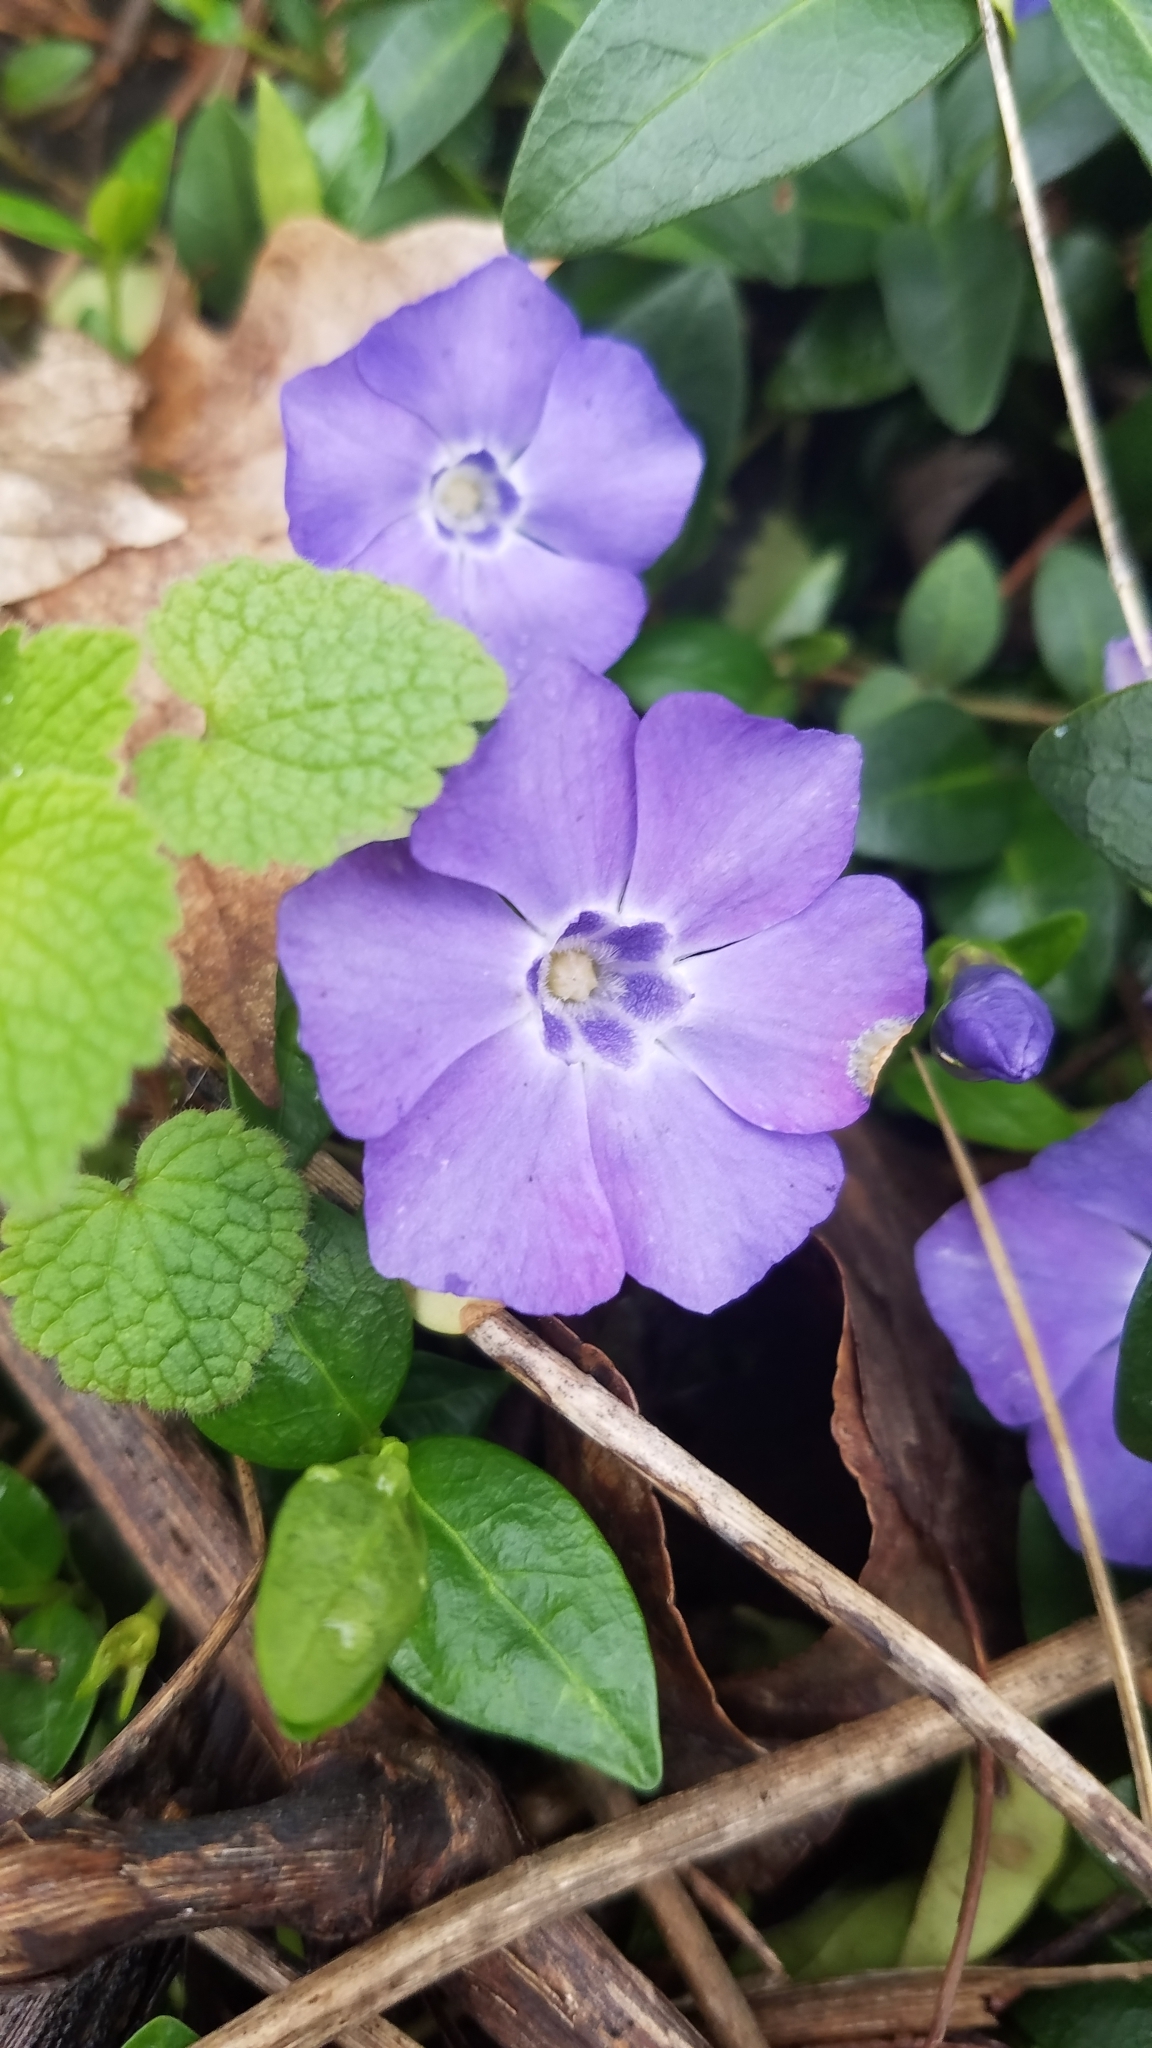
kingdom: Plantae
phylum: Tracheophyta
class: Magnoliopsida
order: Gentianales
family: Apocynaceae
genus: Vinca
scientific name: Vinca minor
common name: Lesser periwinkle
